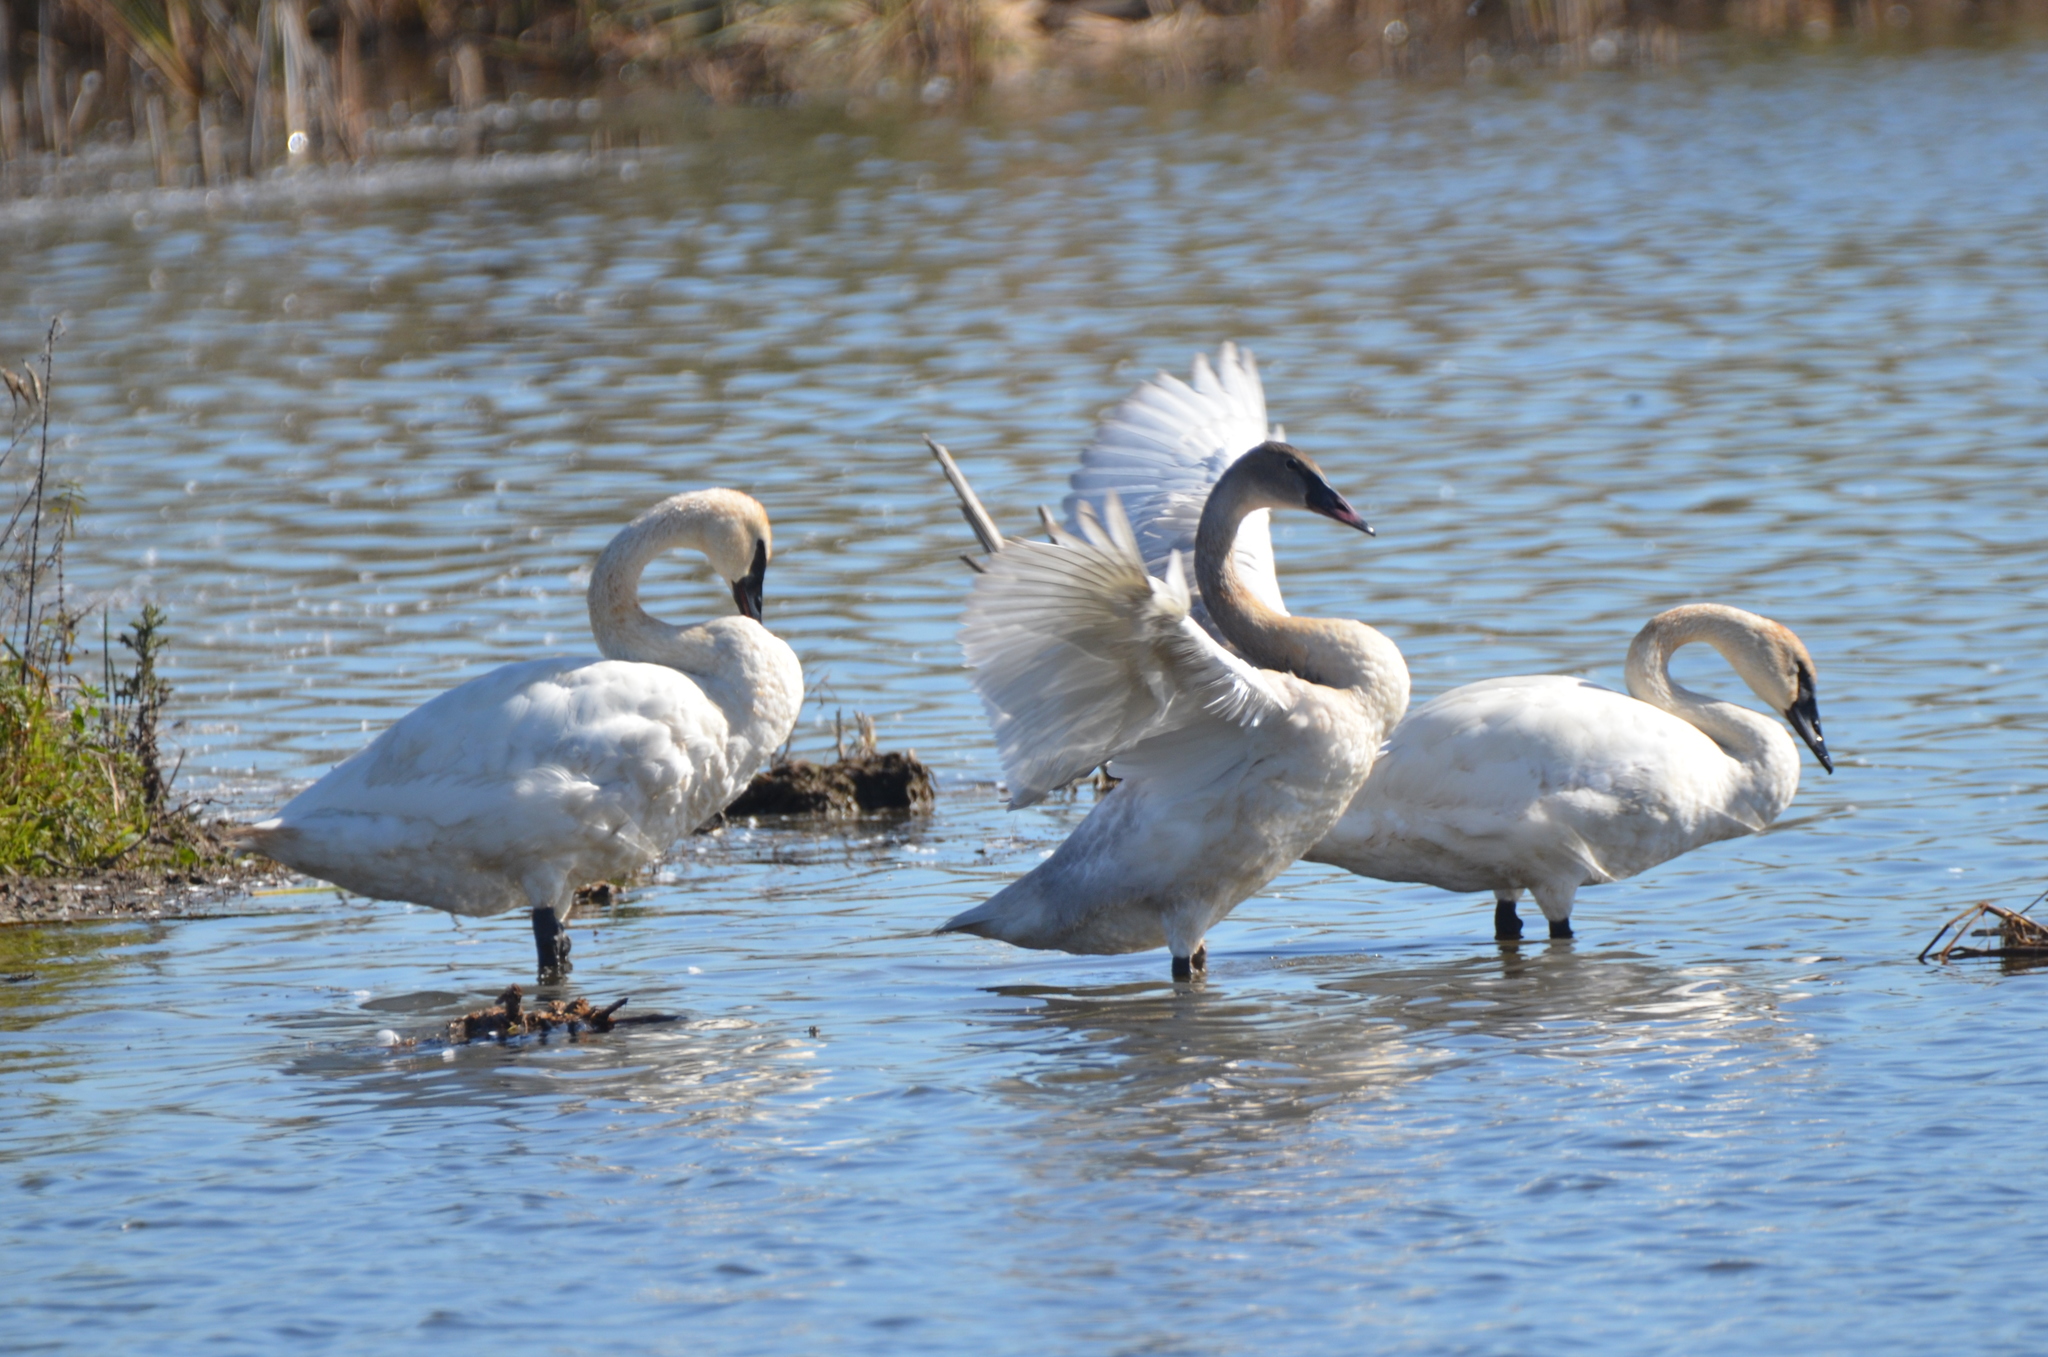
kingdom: Animalia
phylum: Chordata
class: Aves
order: Anseriformes
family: Anatidae
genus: Cygnus
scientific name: Cygnus buccinator
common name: Trumpeter swan
